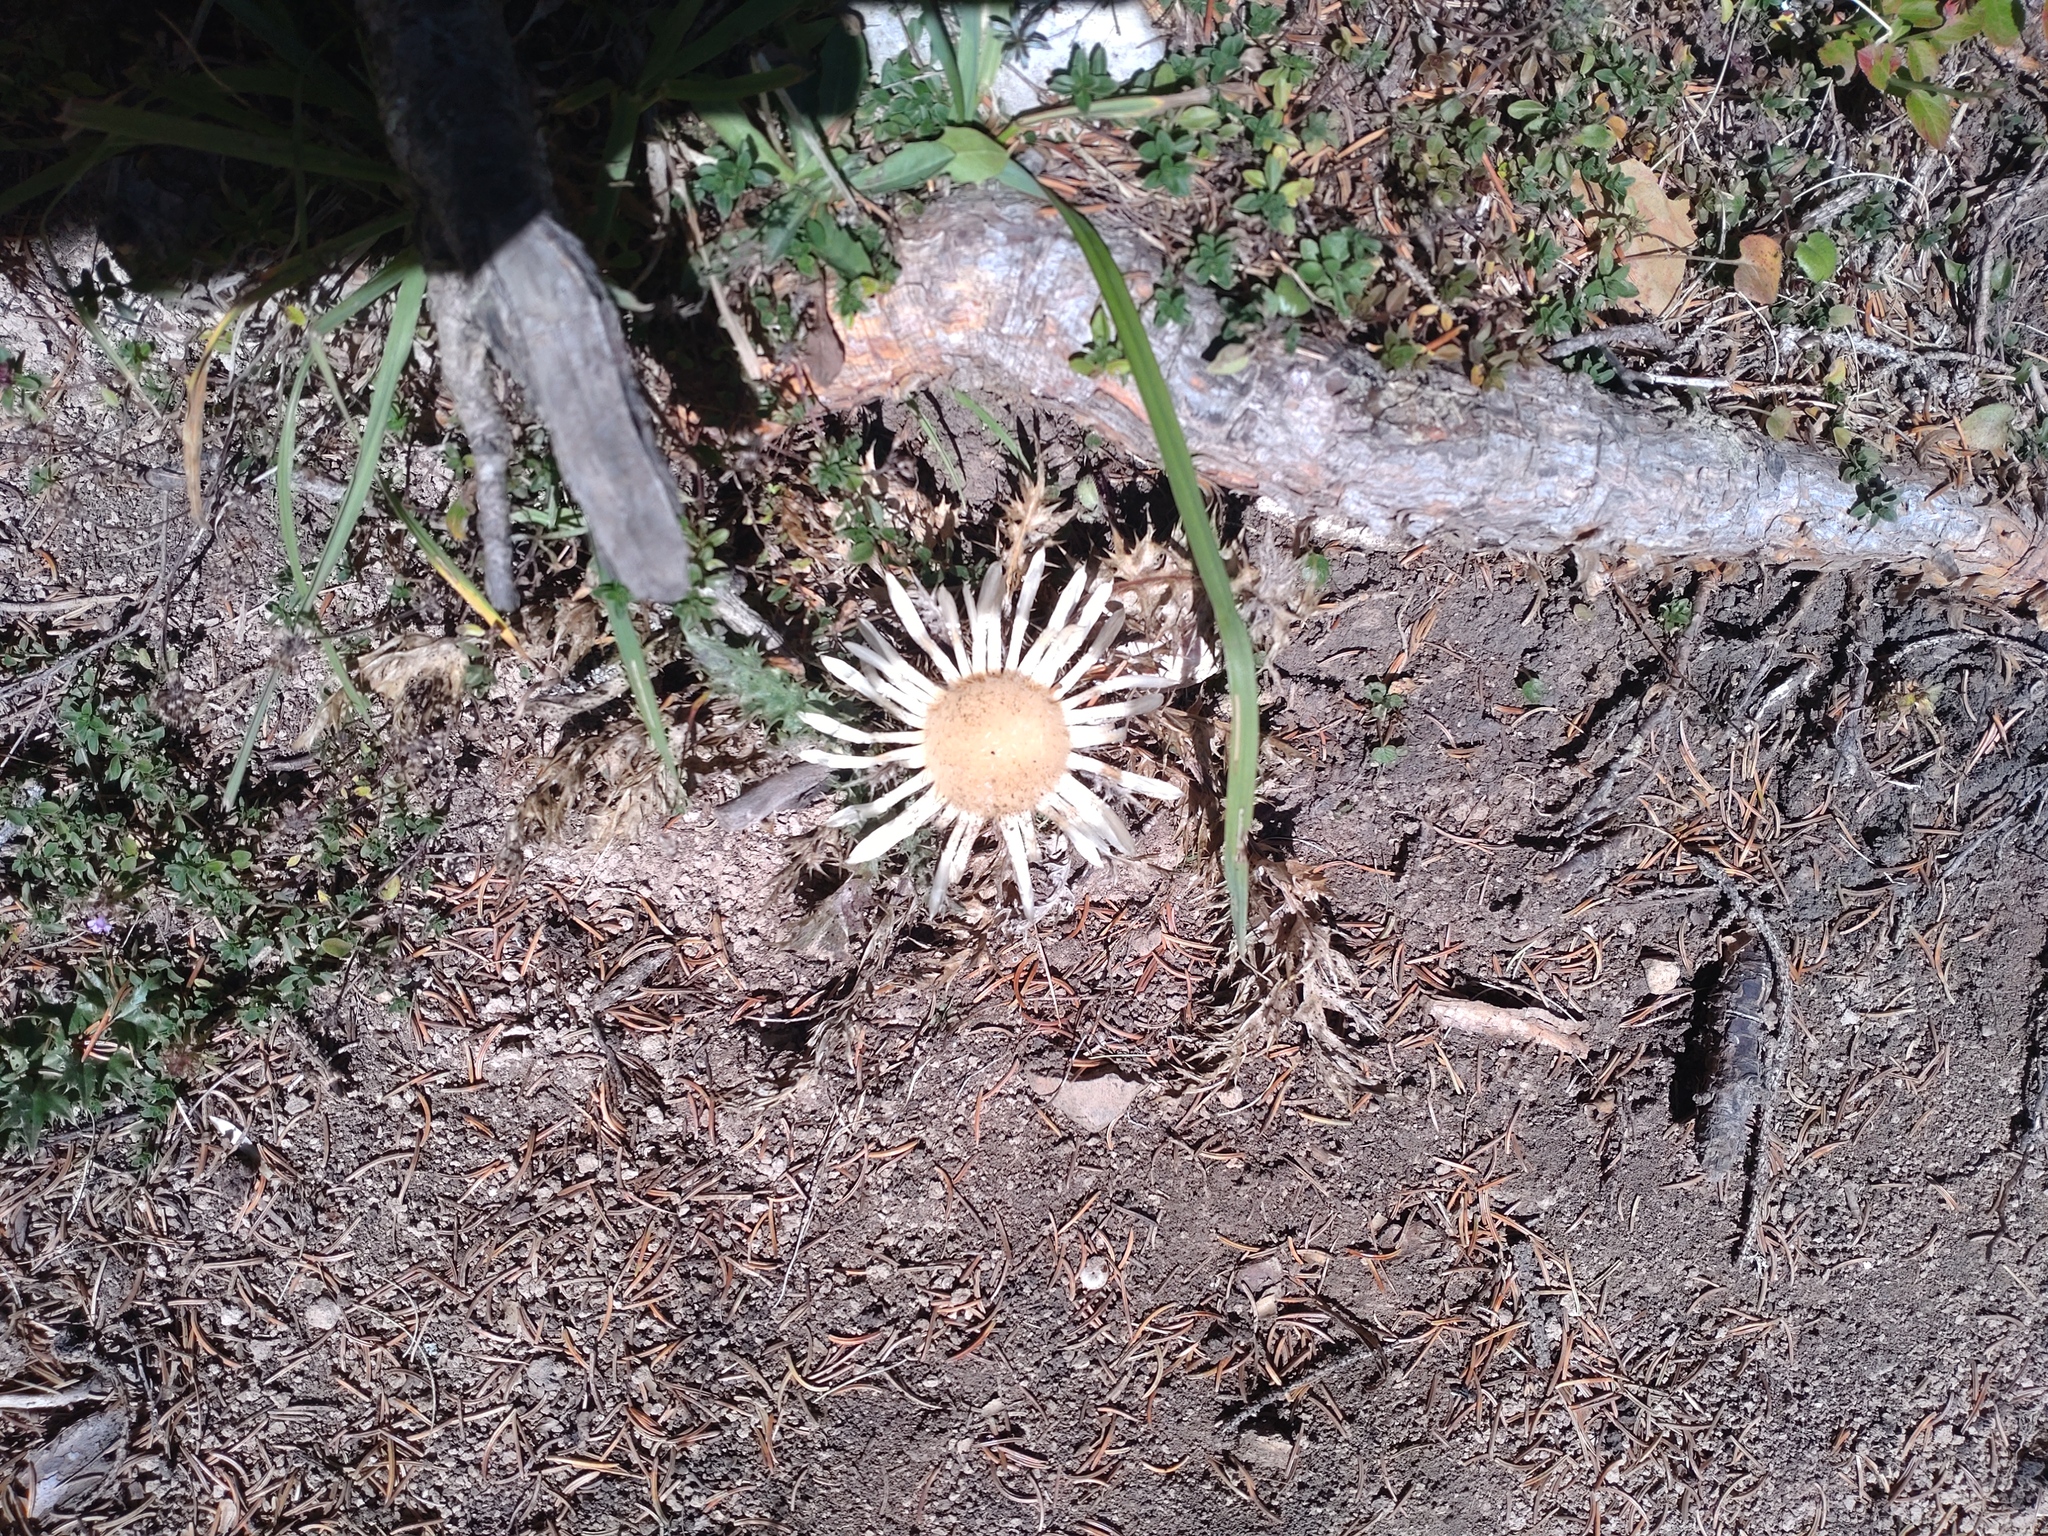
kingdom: Plantae
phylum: Tracheophyta
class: Magnoliopsida
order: Asterales
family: Asteraceae
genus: Carlina
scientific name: Carlina acaulis
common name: Stemless carline thistle
